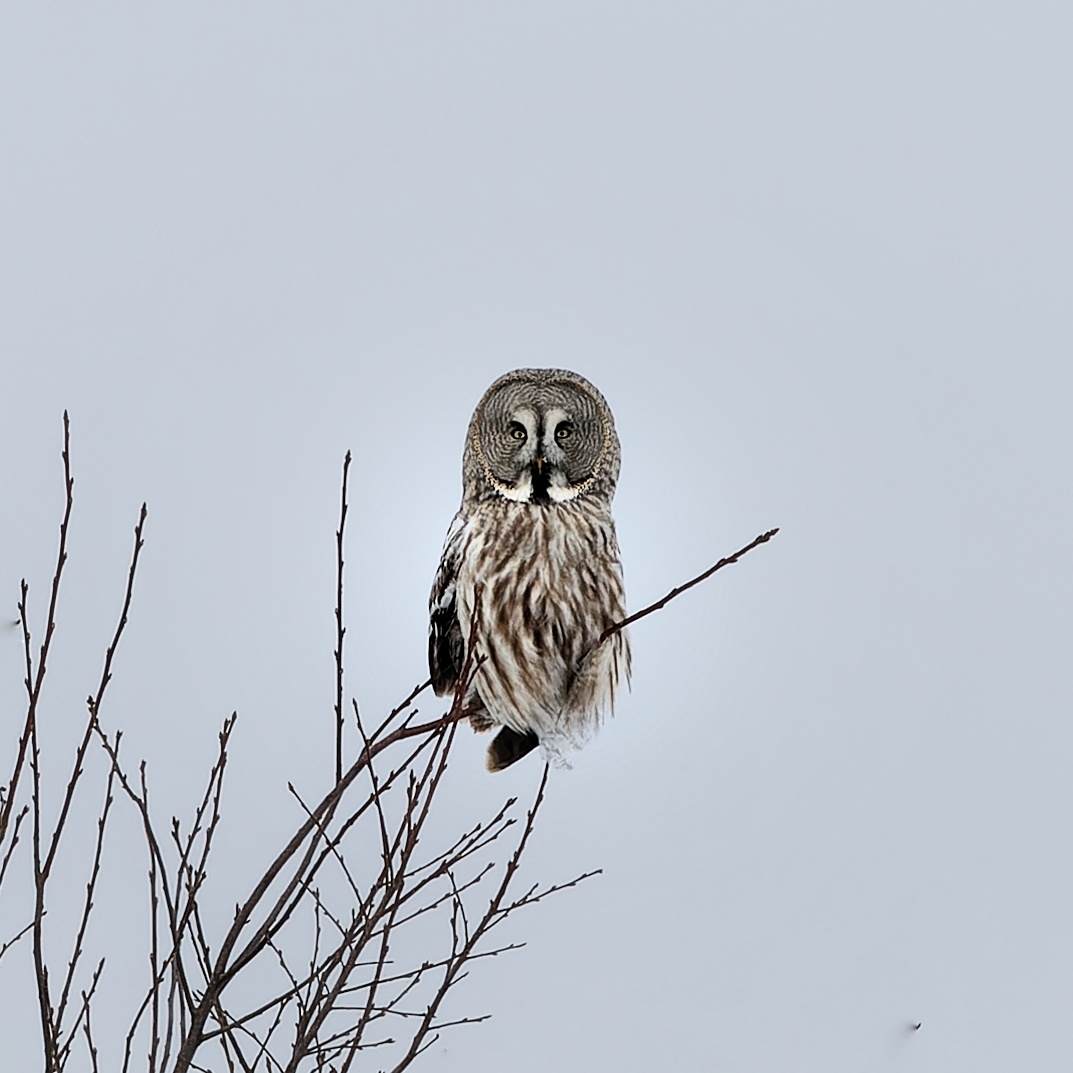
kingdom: Animalia
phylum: Chordata
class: Aves
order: Strigiformes
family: Strigidae
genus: Strix
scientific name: Strix nebulosa
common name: Great grey owl
